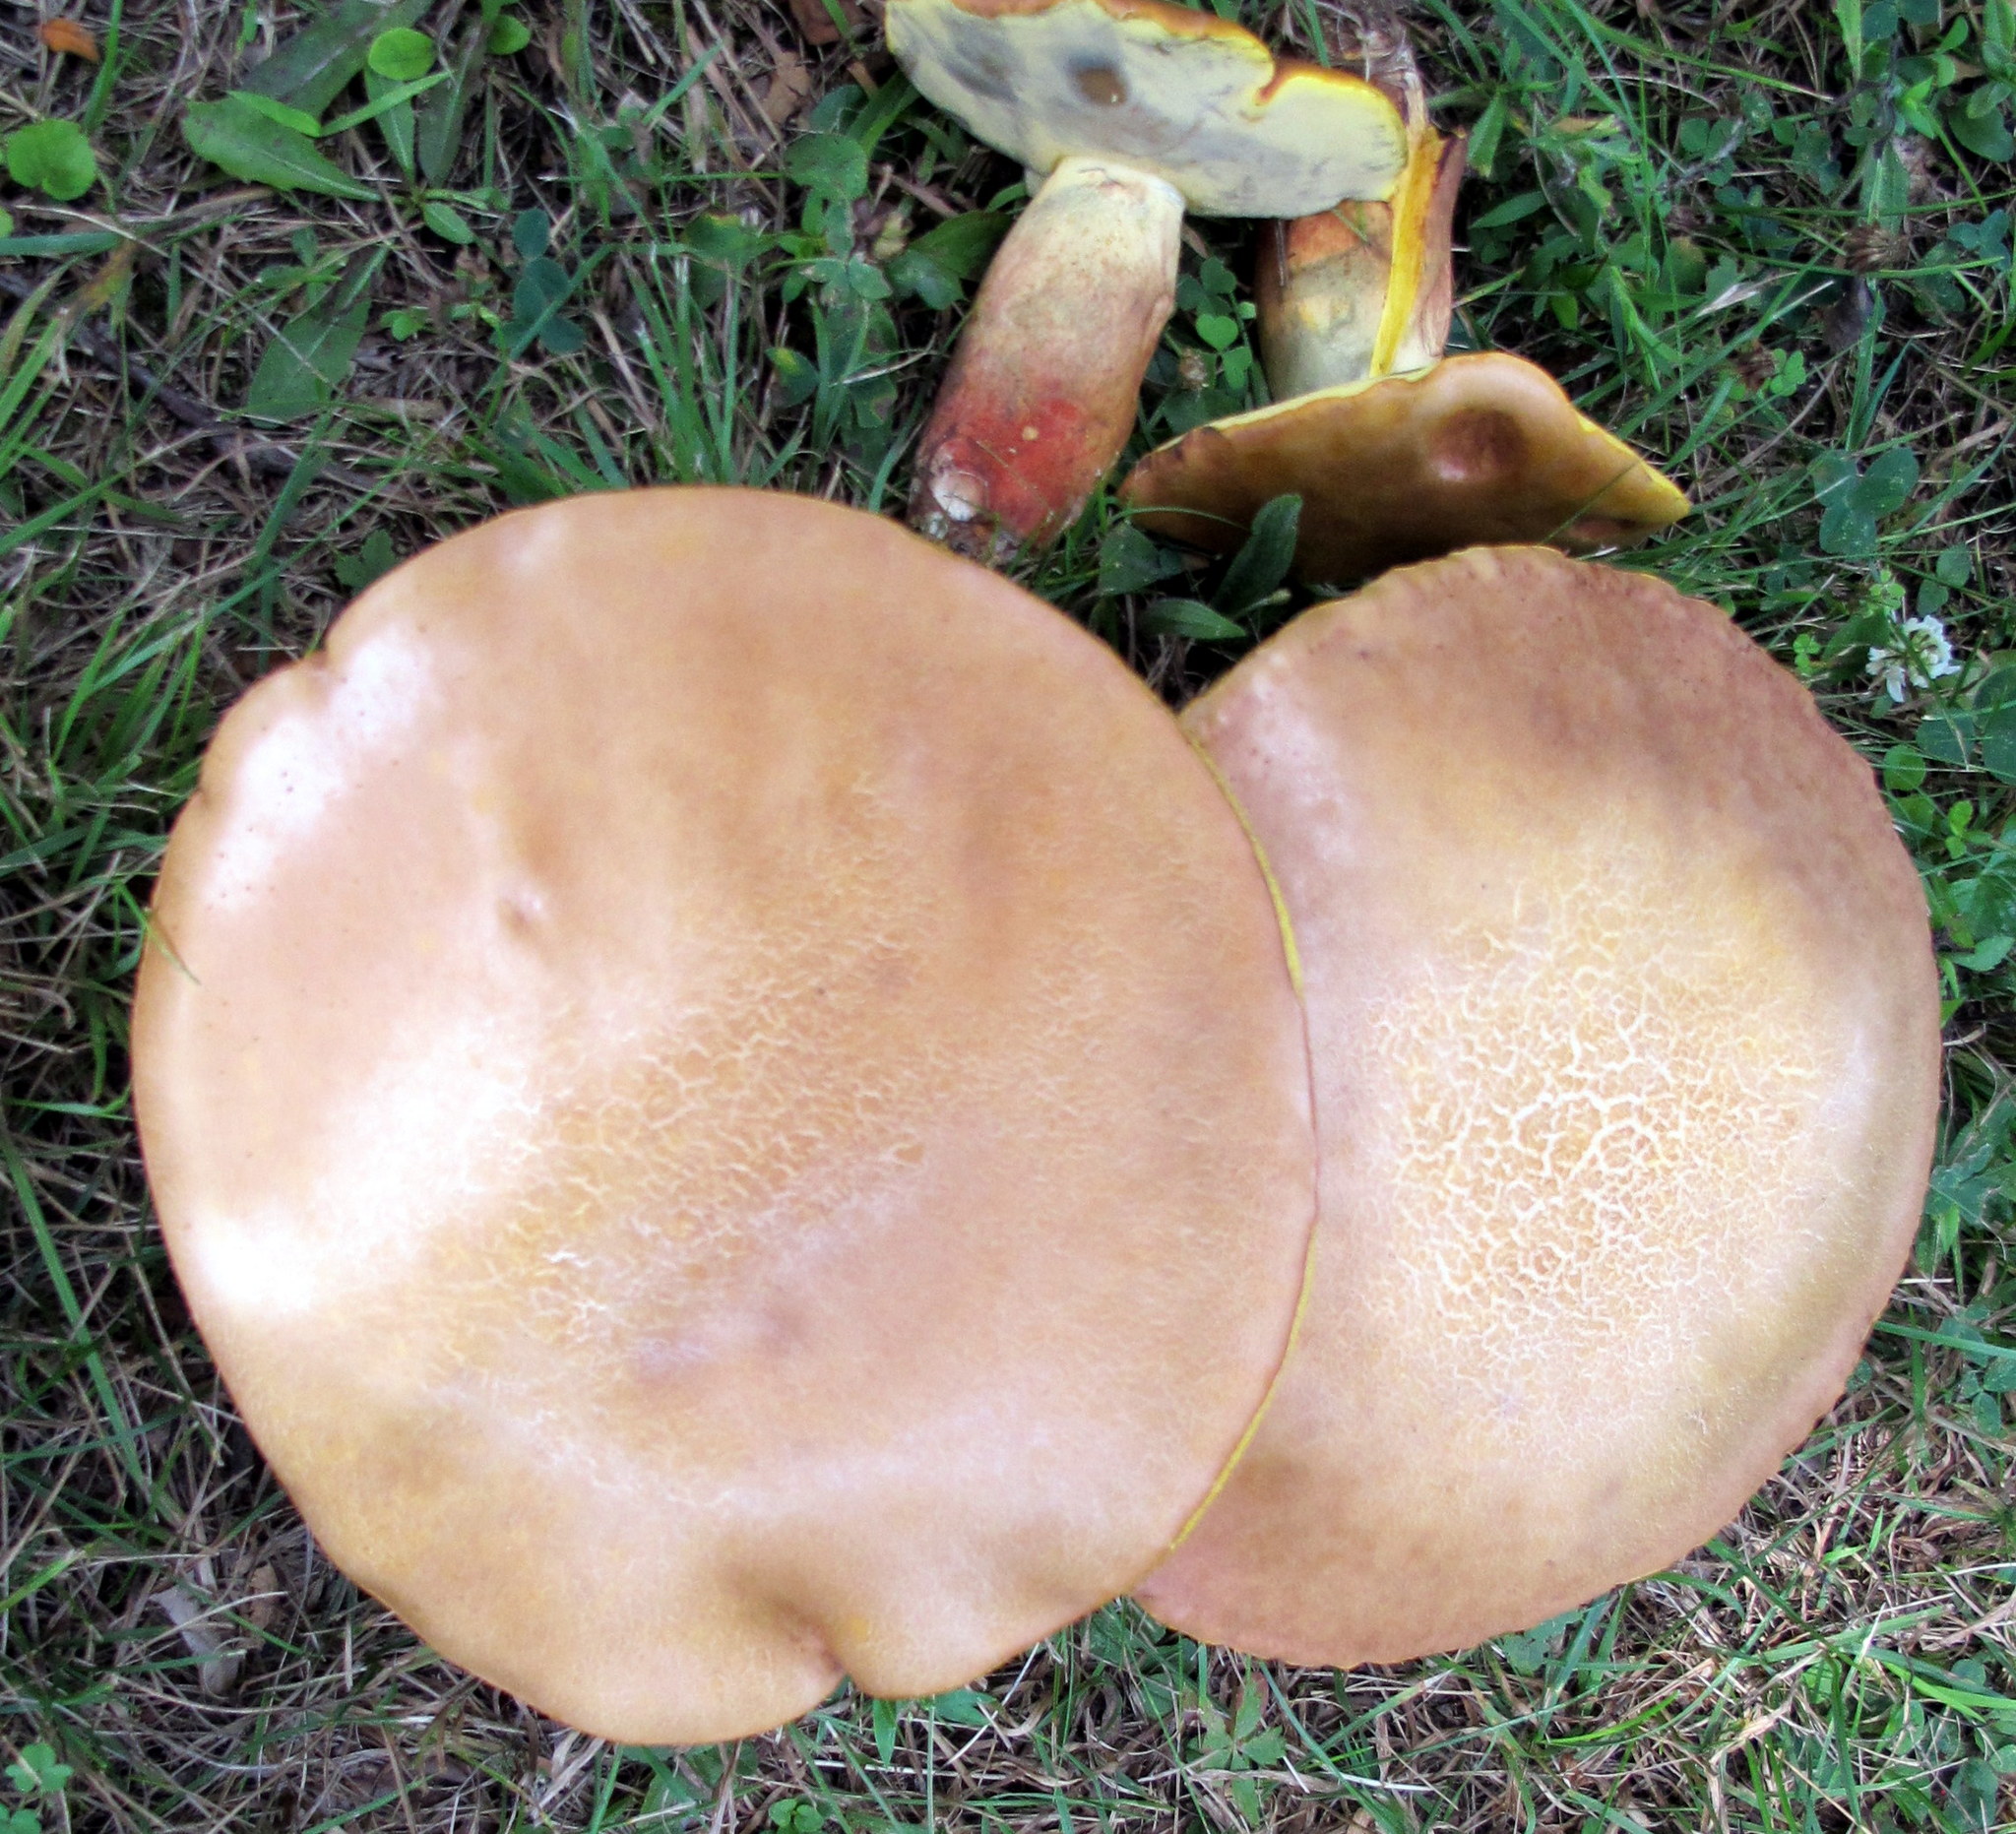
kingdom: Fungi
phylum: Basidiomycota
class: Agaricomycetes
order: Boletales
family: Boletaceae
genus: Baorangia
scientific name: Baorangia bicolor
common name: Two-colored bolete
